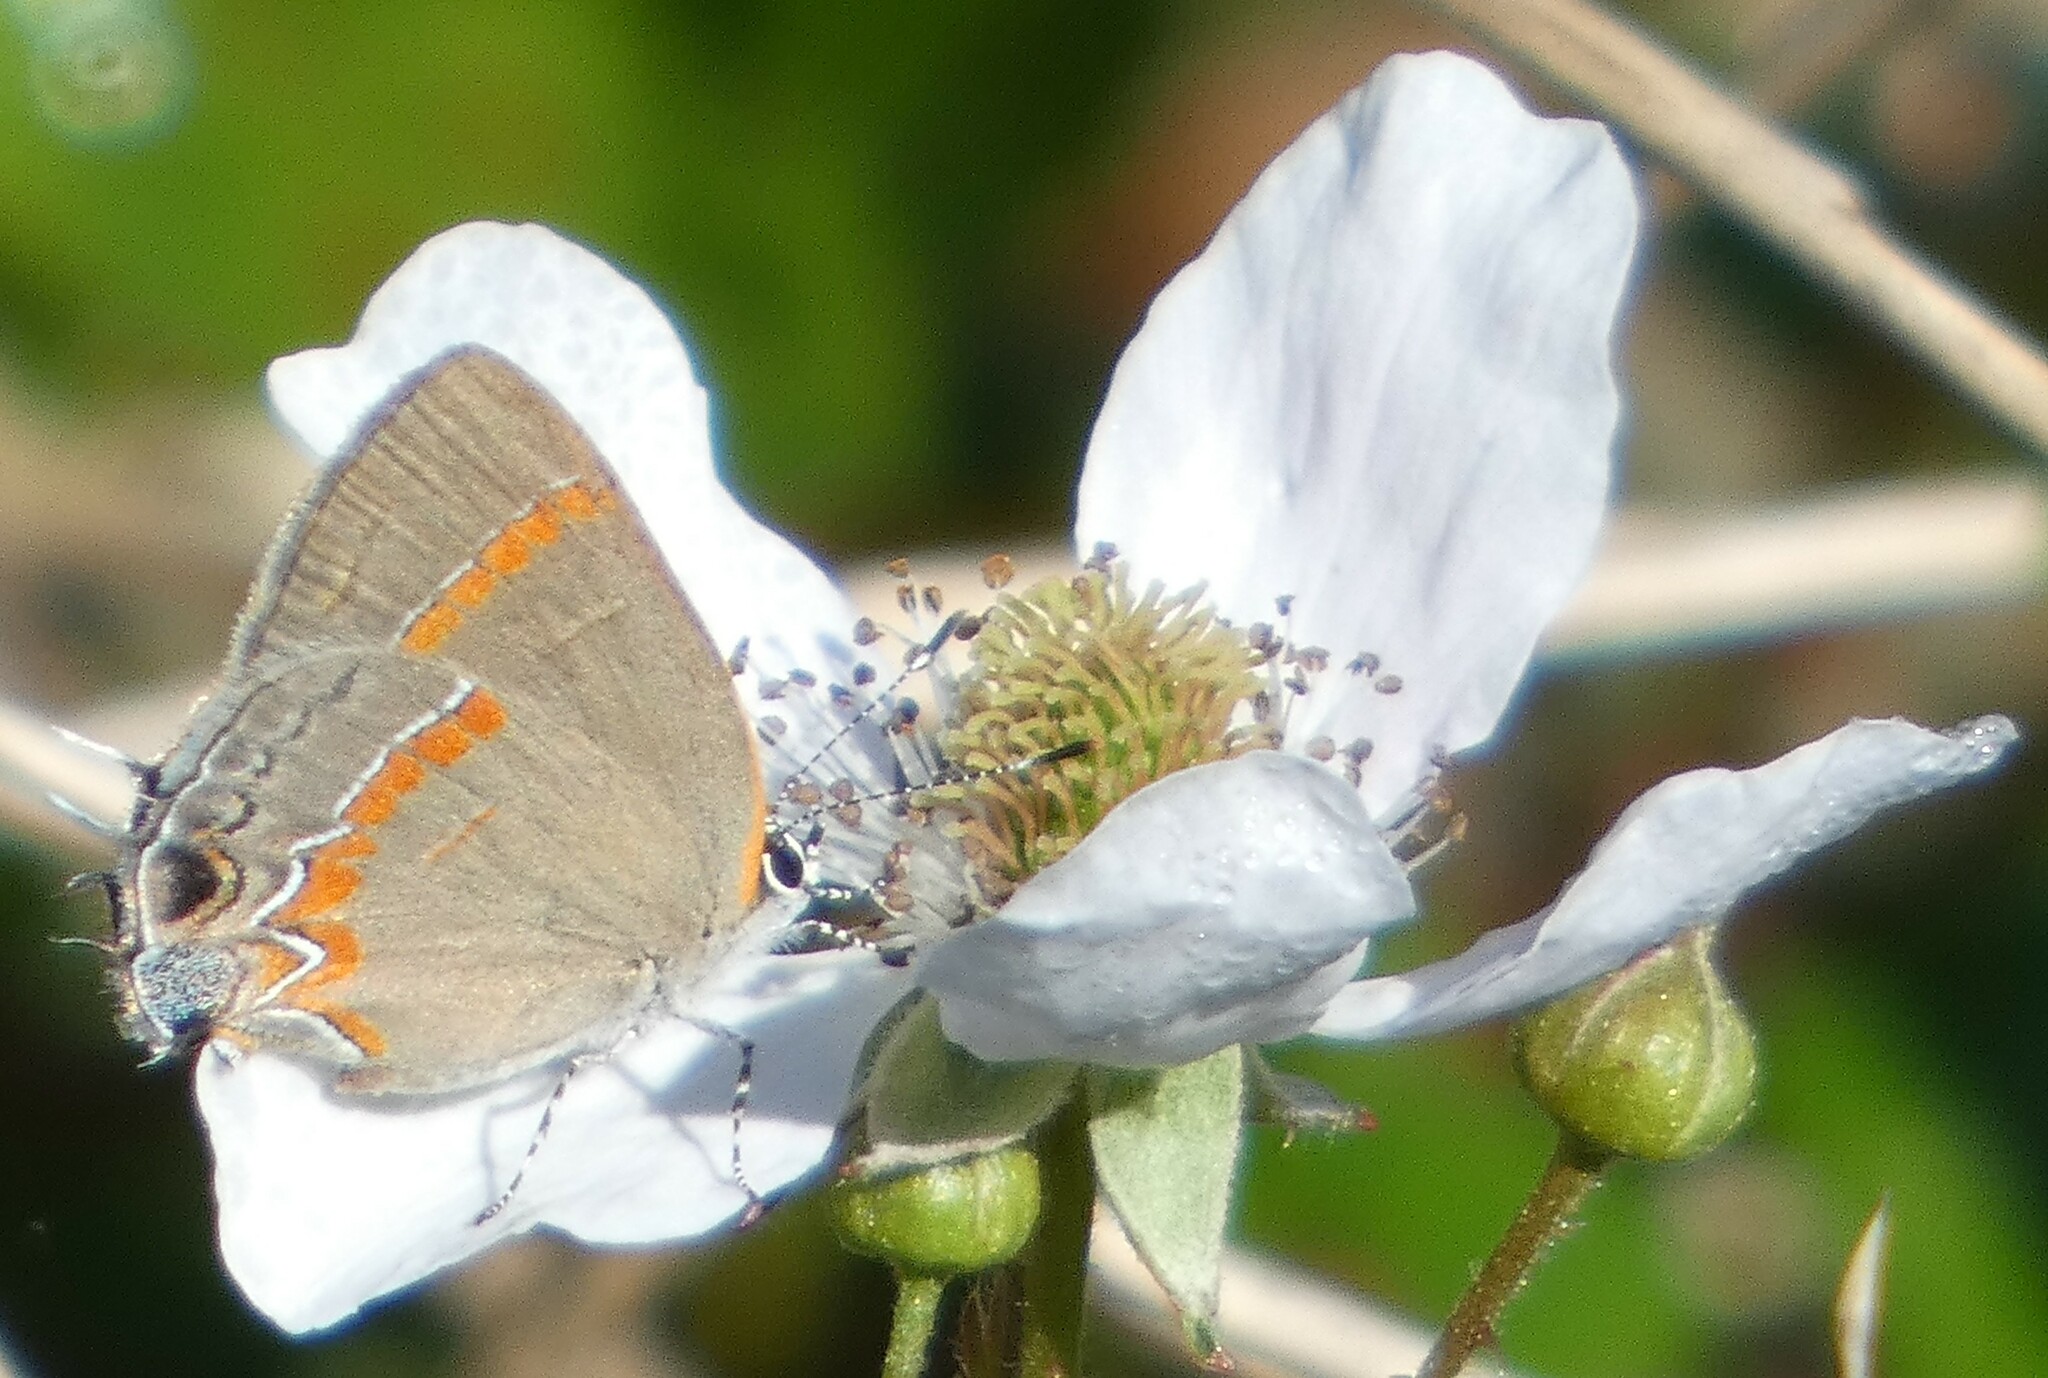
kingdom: Animalia
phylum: Arthropoda
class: Insecta
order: Lepidoptera
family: Lycaenidae
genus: Calycopis
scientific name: Calycopis cecrops
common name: Red-banded hairstreak
